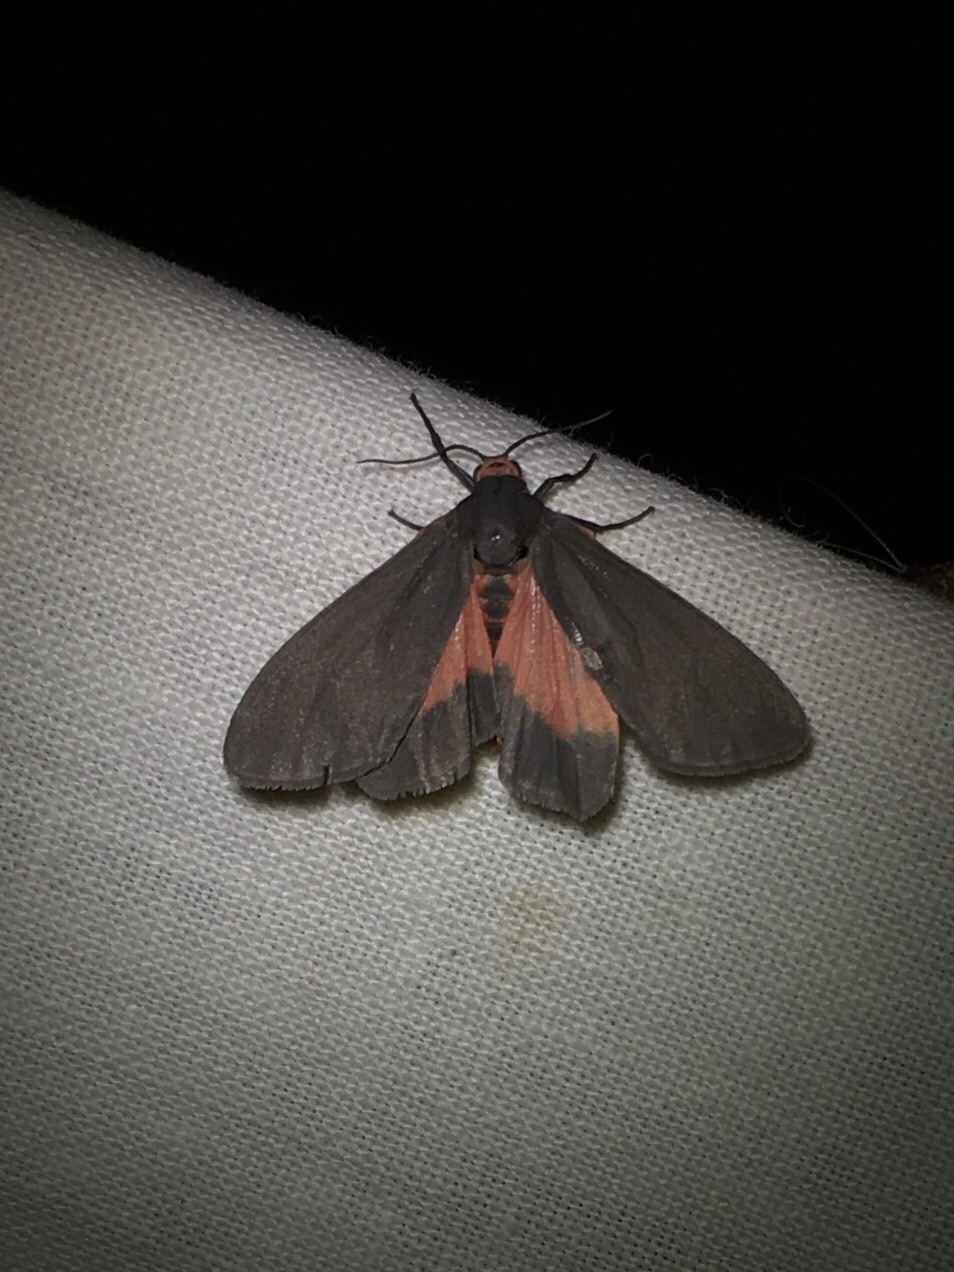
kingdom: Animalia
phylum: Arthropoda
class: Insecta
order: Lepidoptera
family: Erebidae
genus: Virbia
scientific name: Virbia laeta
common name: Joyful holomelina moth
